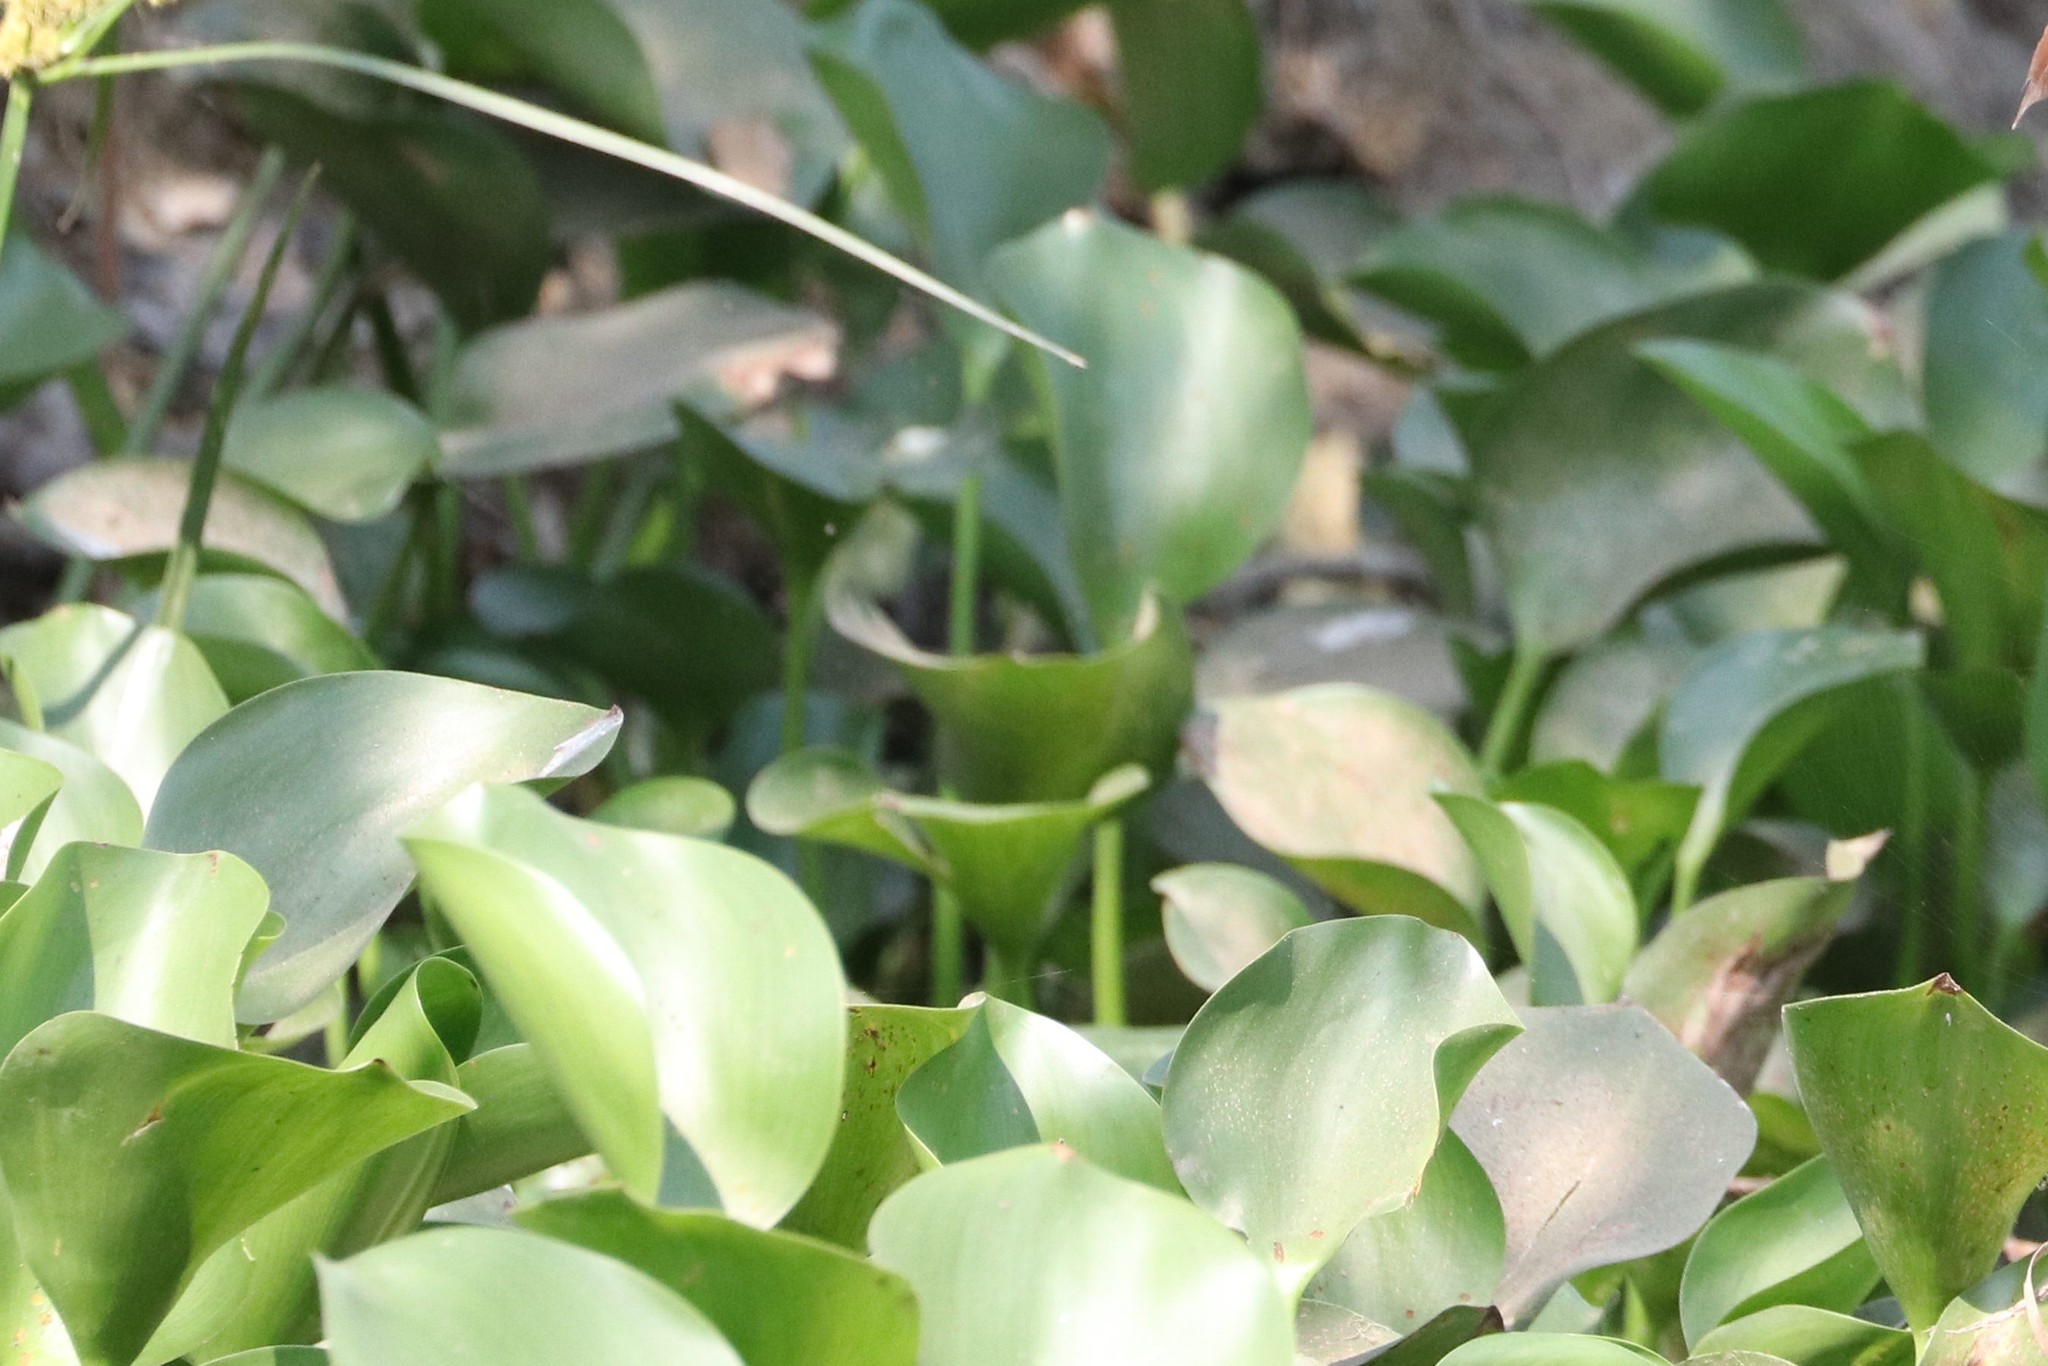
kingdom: Plantae
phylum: Tracheophyta
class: Liliopsida
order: Commelinales
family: Pontederiaceae
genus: Pontederia
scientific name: Pontederia crassipes
